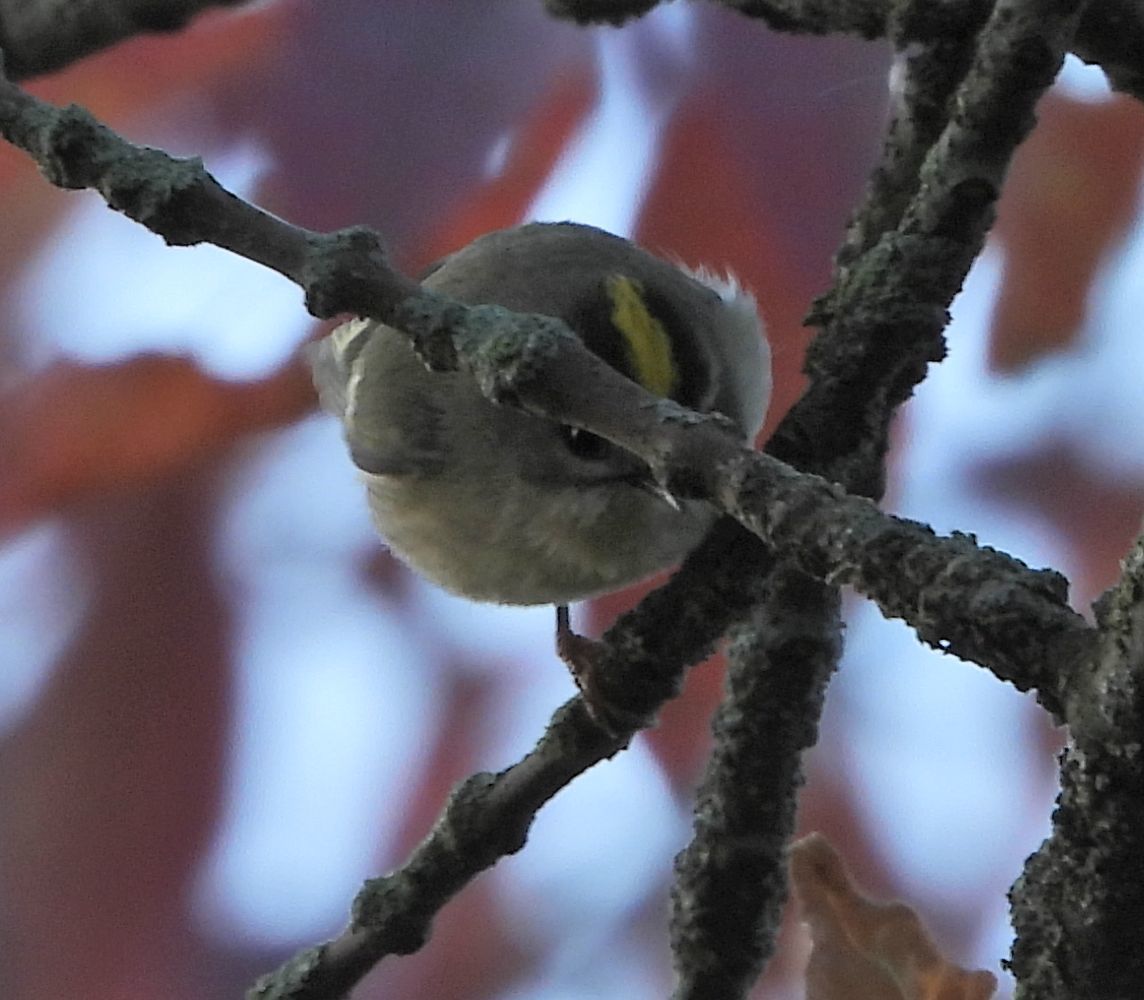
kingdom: Animalia
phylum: Chordata
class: Aves
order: Passeriformes
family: Regulidae
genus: Regulus
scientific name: Regulus satrapa
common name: Golden-crowned kinglet
